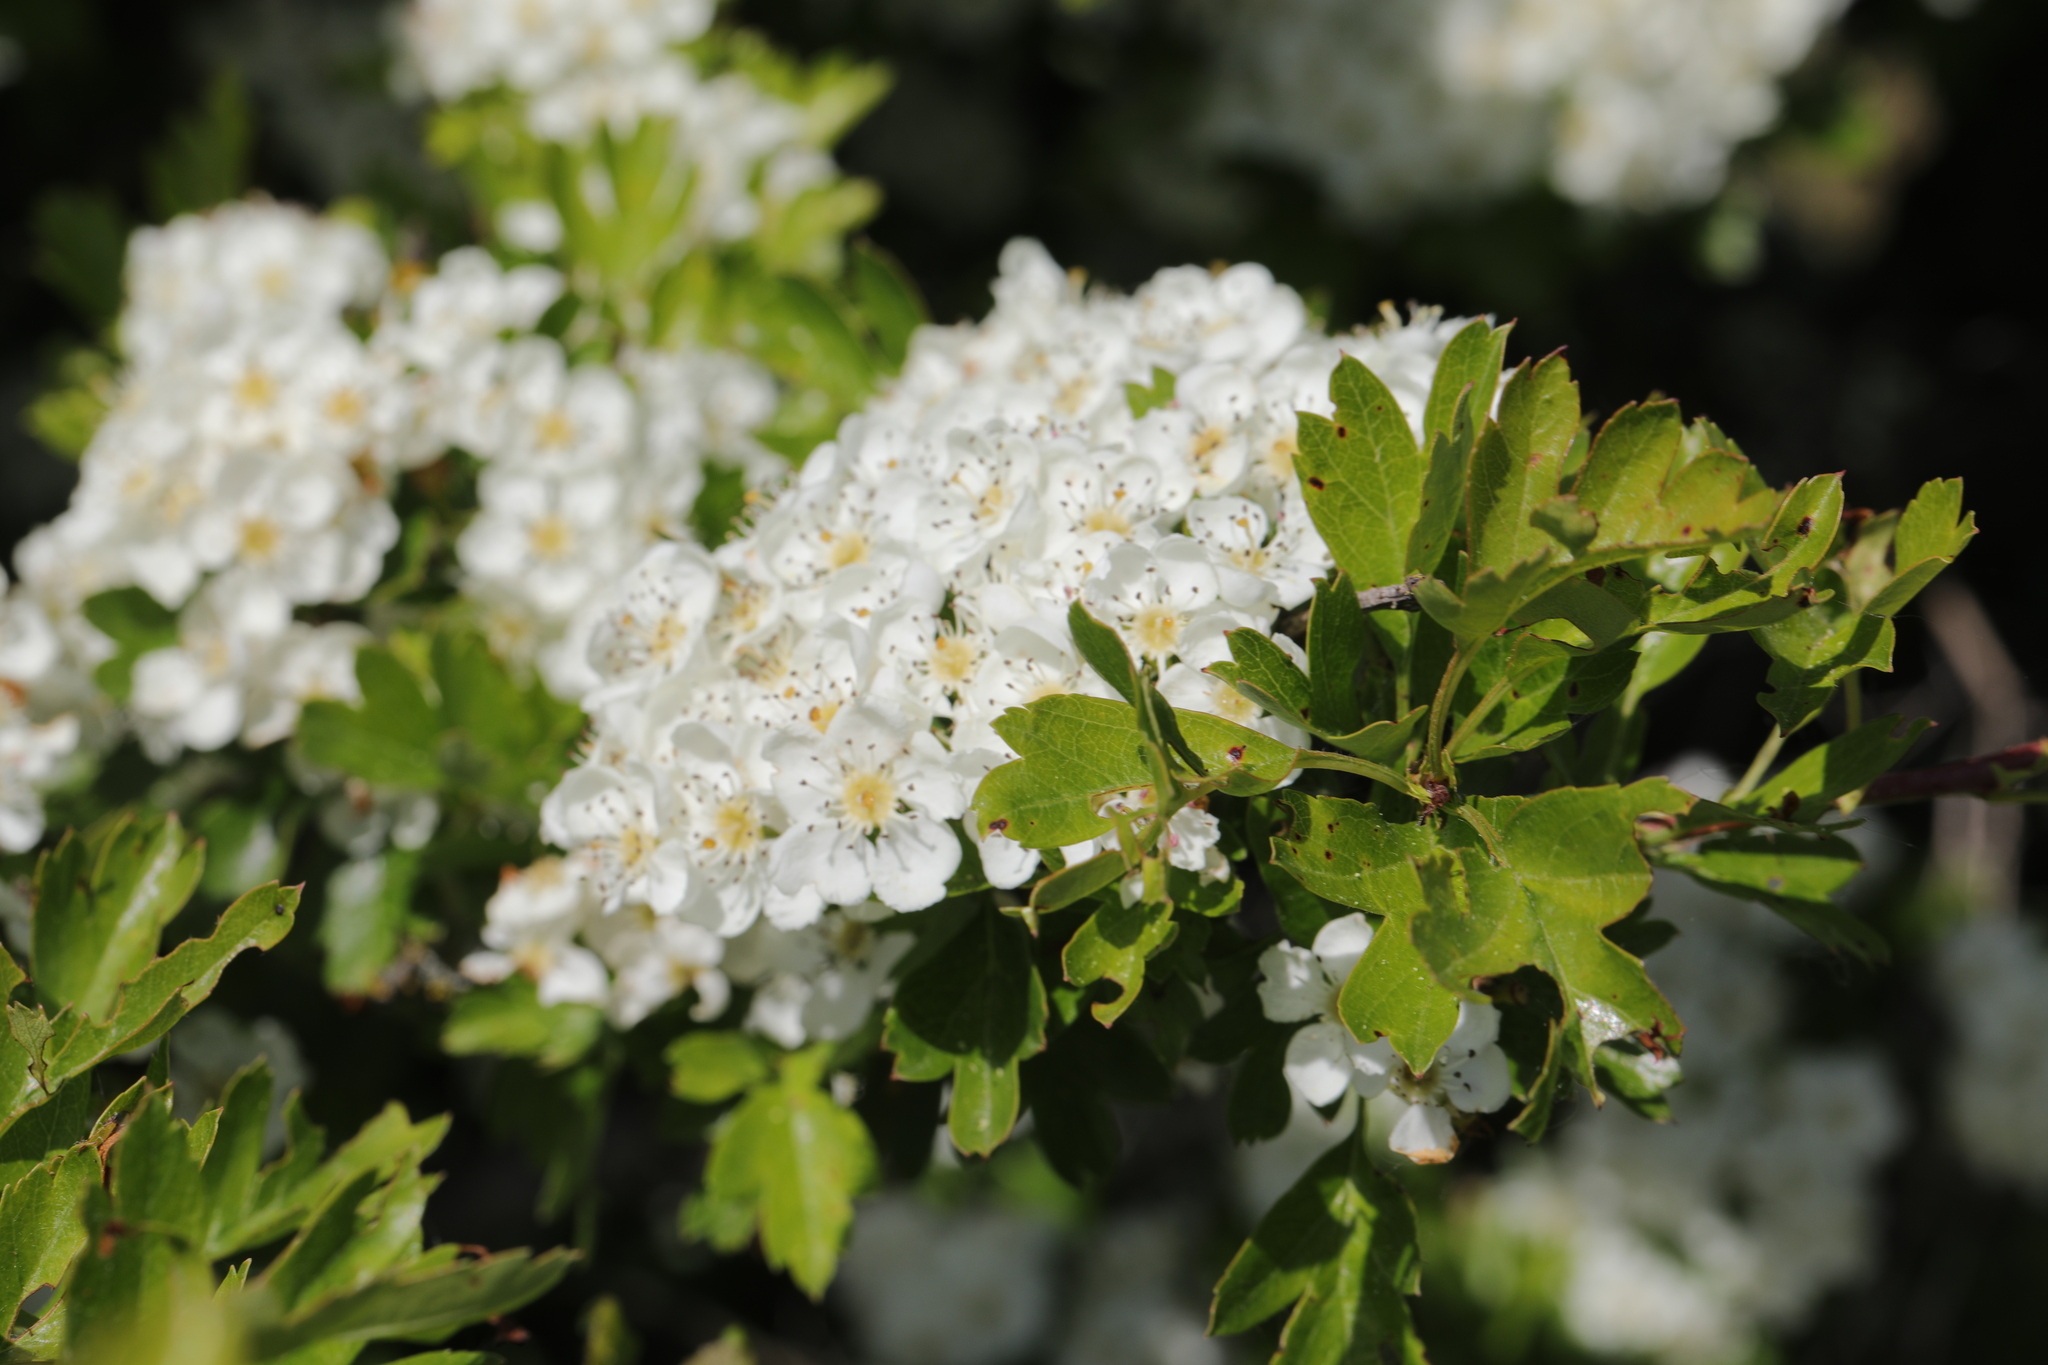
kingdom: Plantae
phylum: Tracheophyta
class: Magnoliopsida
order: Rosales
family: Rosaceae
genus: Crataegus
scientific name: Crataegus monogyna
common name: Hawthorn
